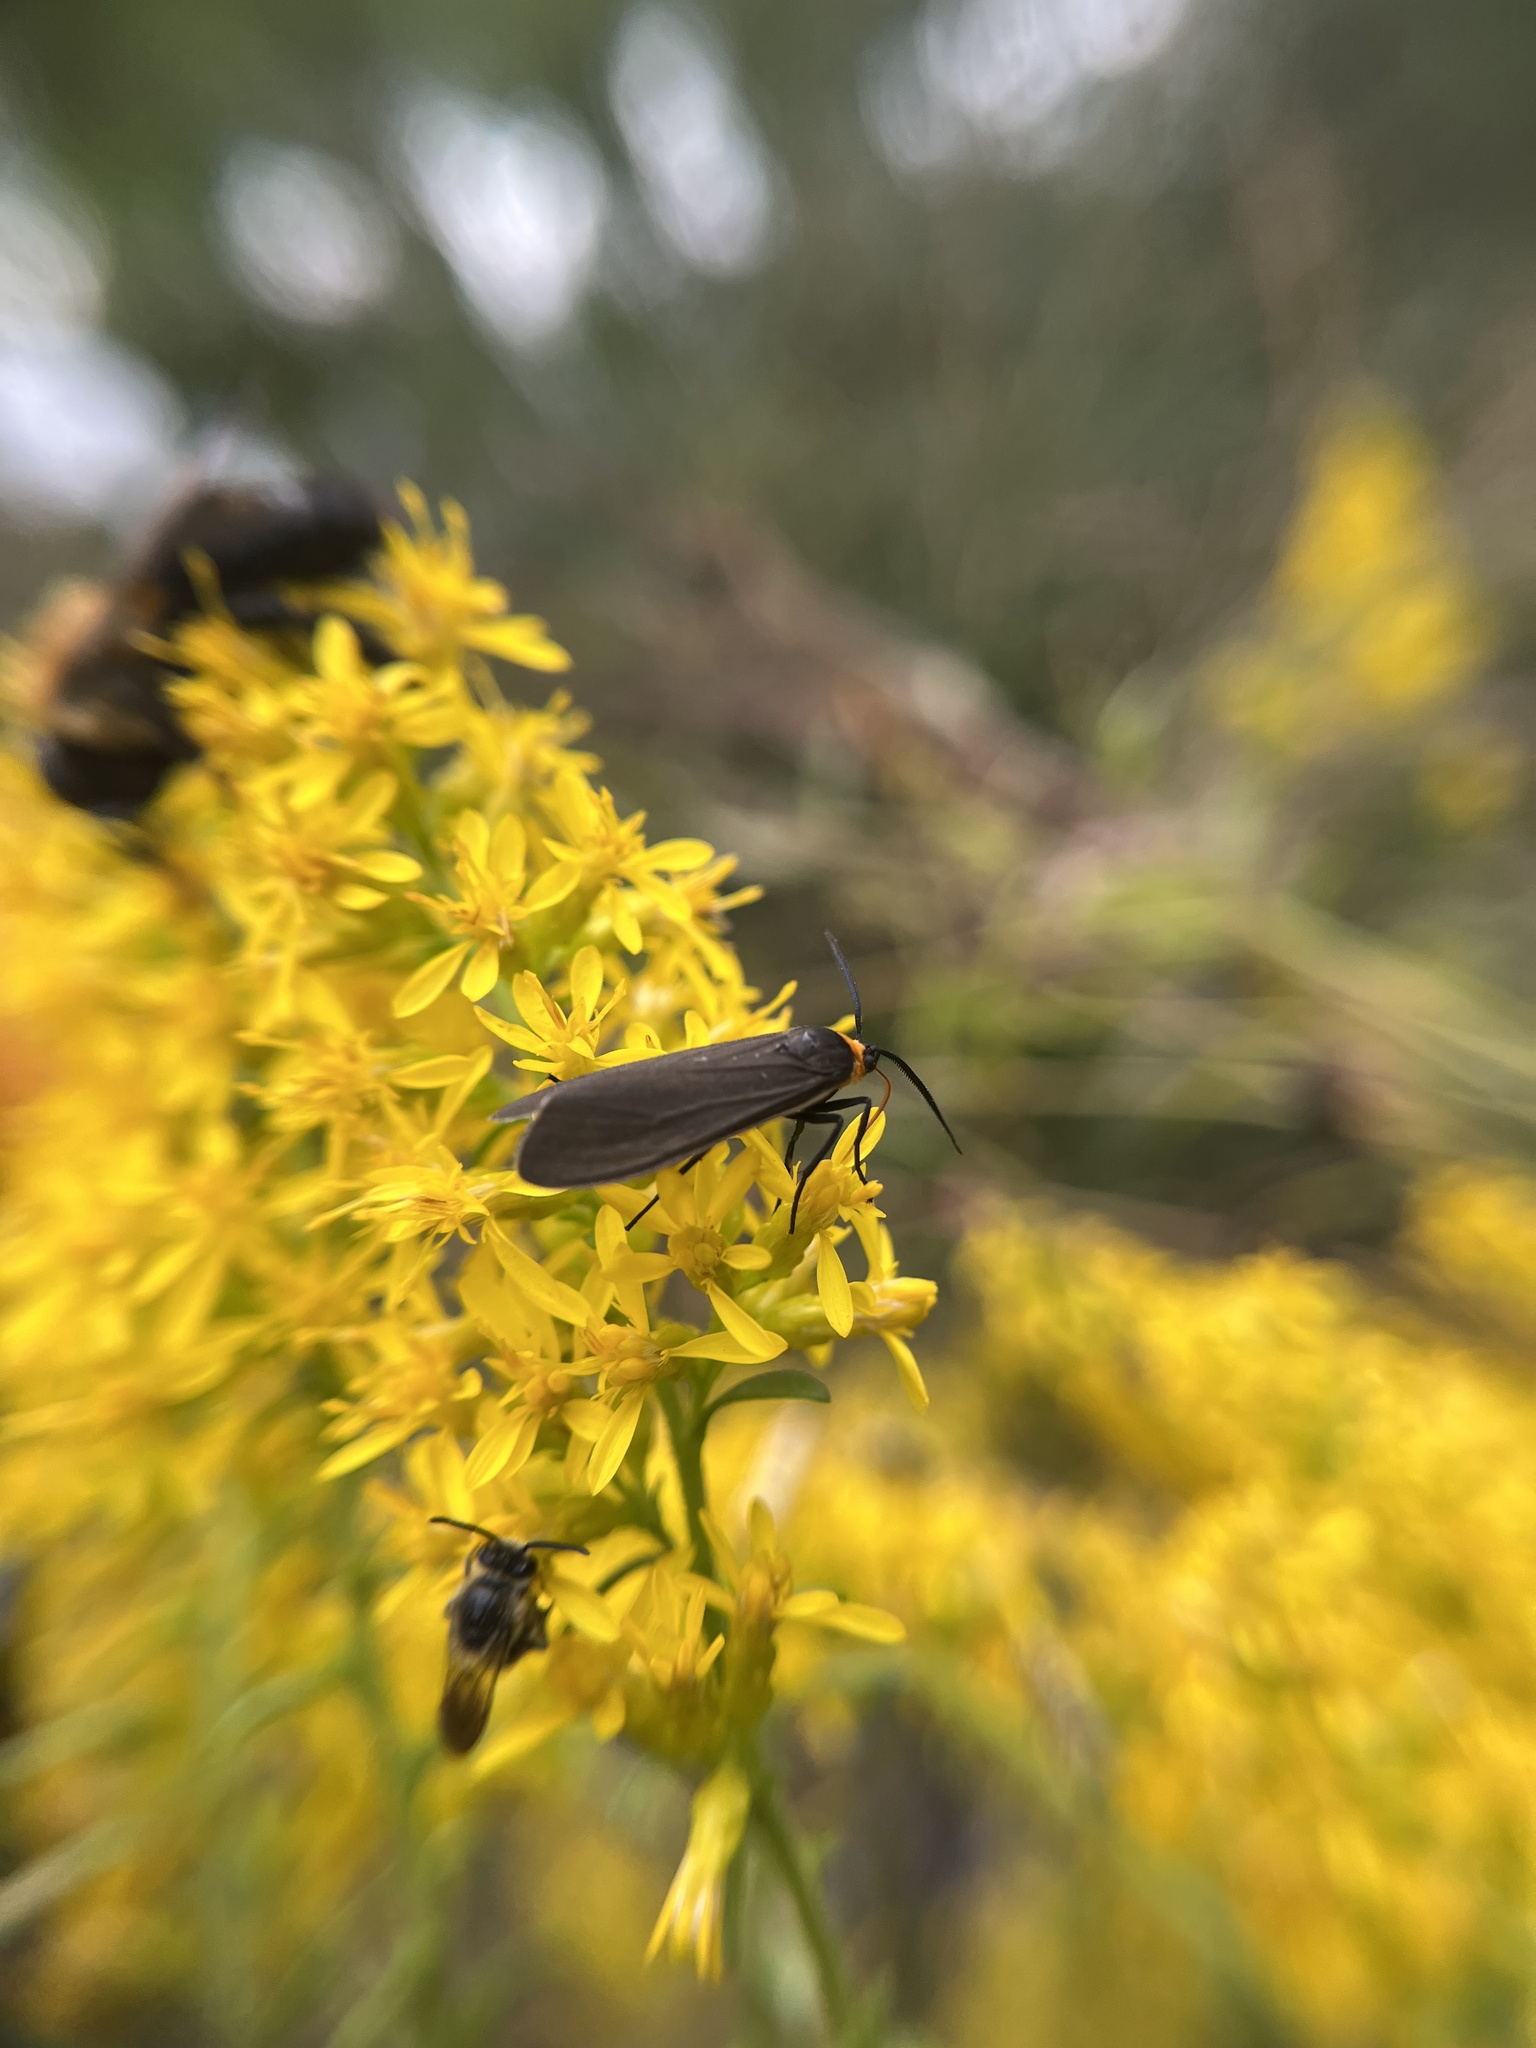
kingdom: Animalia
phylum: Arthropoda
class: Insecta
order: Lepidoptera
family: Erebidae
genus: Cisseps
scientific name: Cisseps fulvicollis
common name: Yellow-collared scape moth
